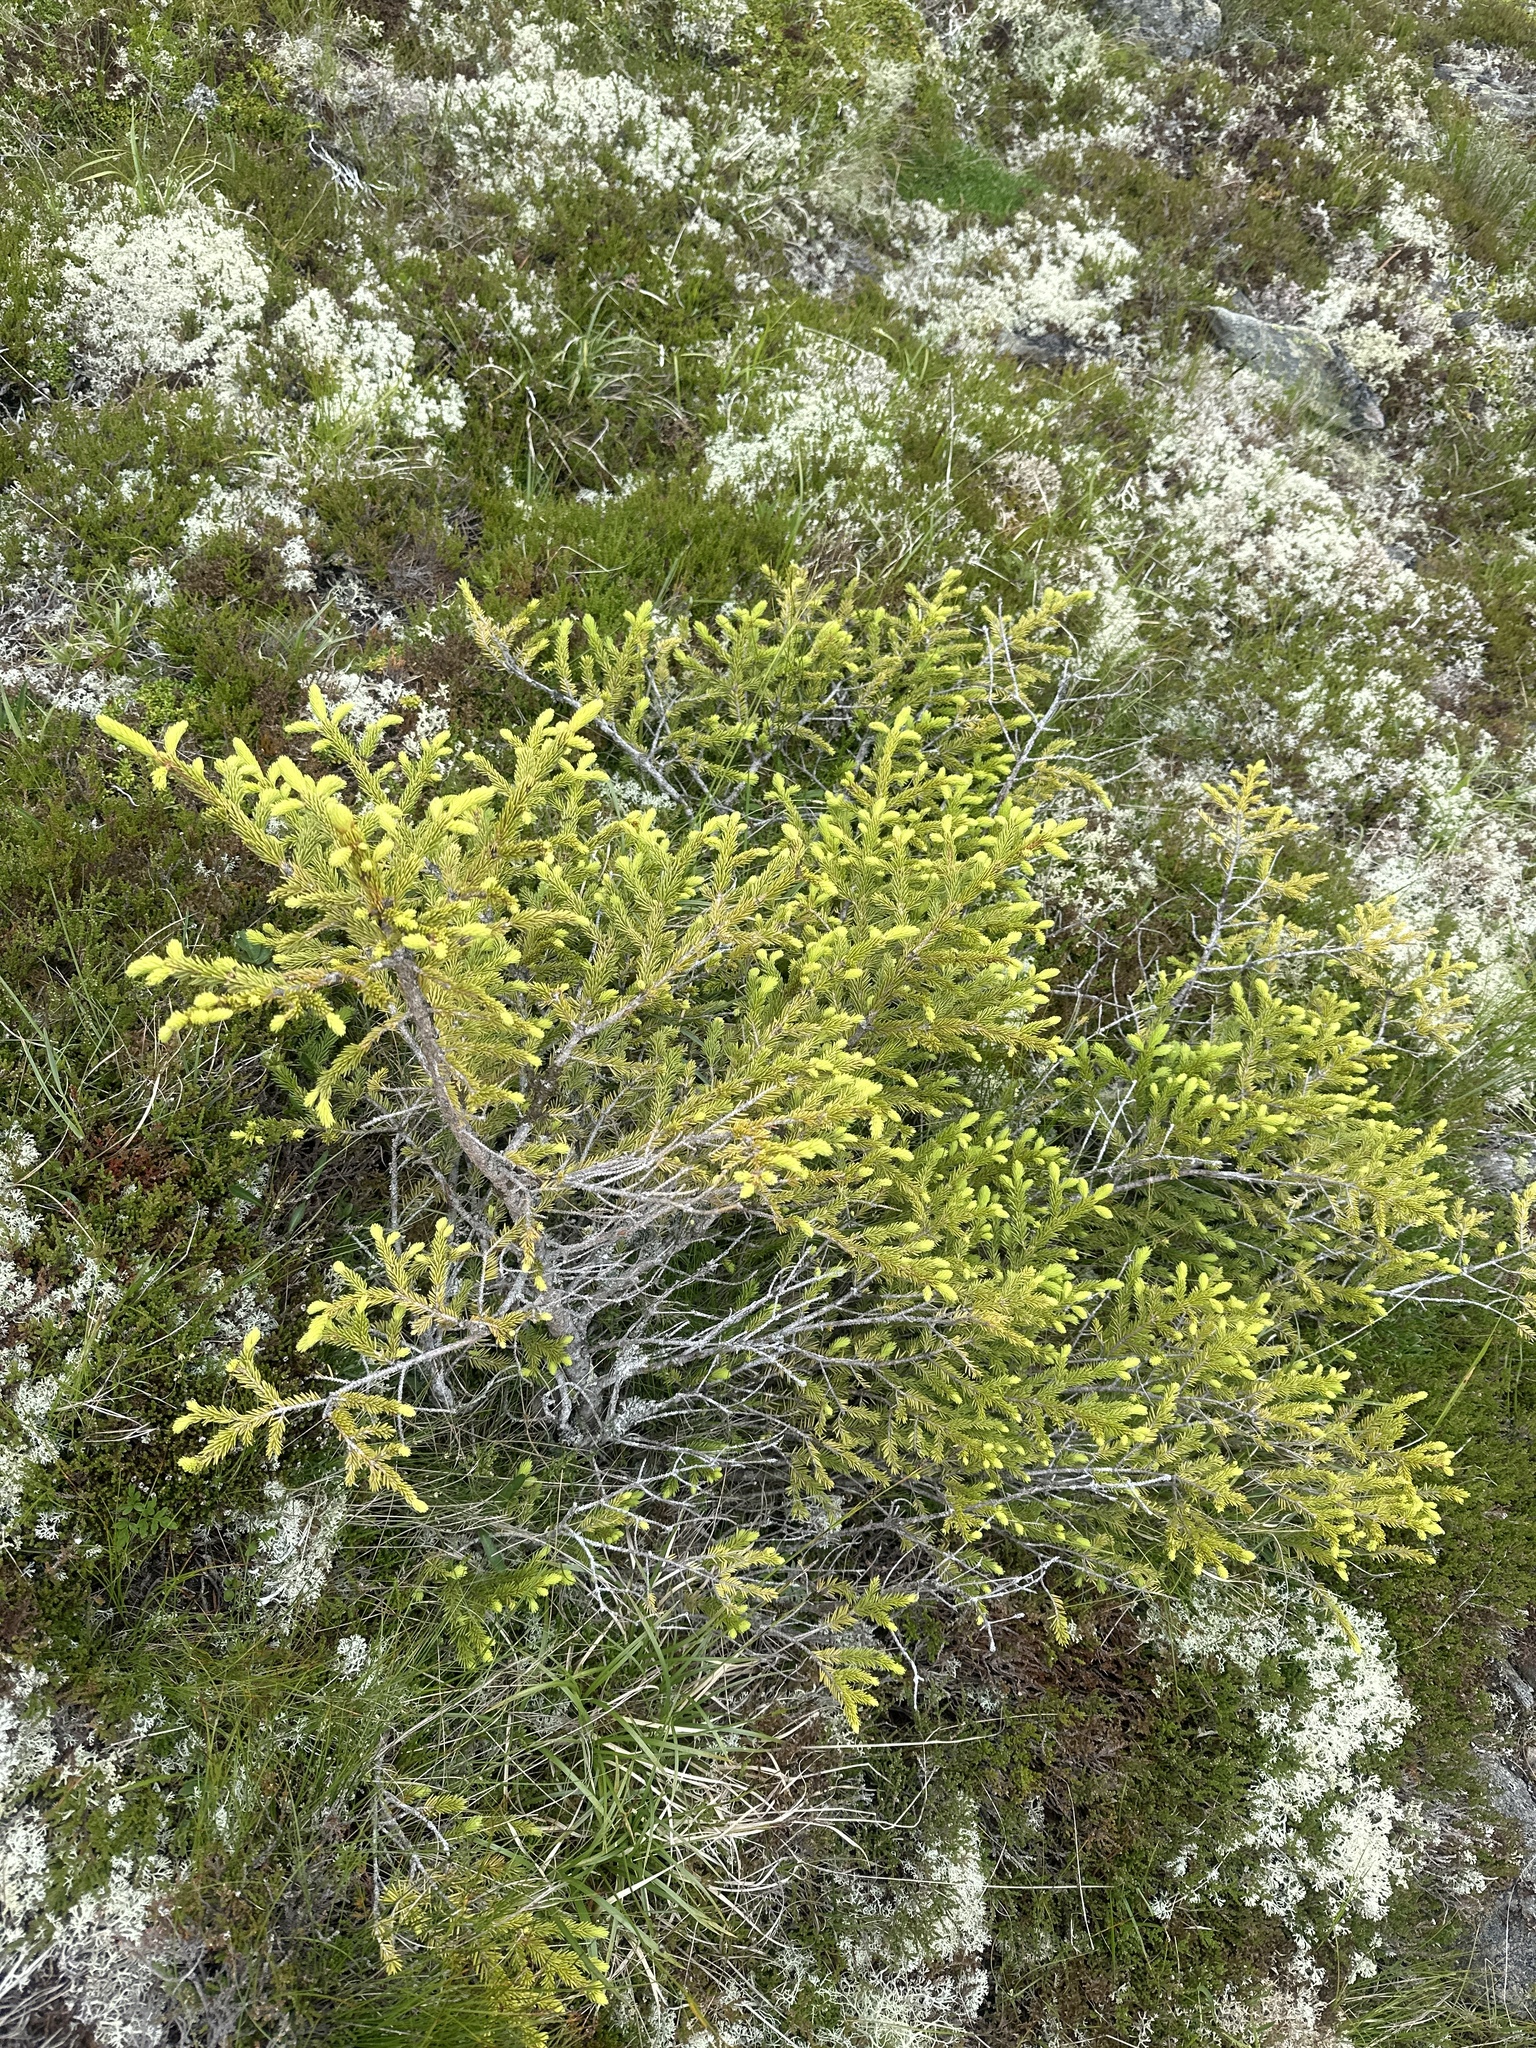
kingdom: Plantae
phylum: Tracheophyta
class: Pinopsida
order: Pinales
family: Pinaceae
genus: Picea
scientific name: Picea abies
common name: Norway spruce
